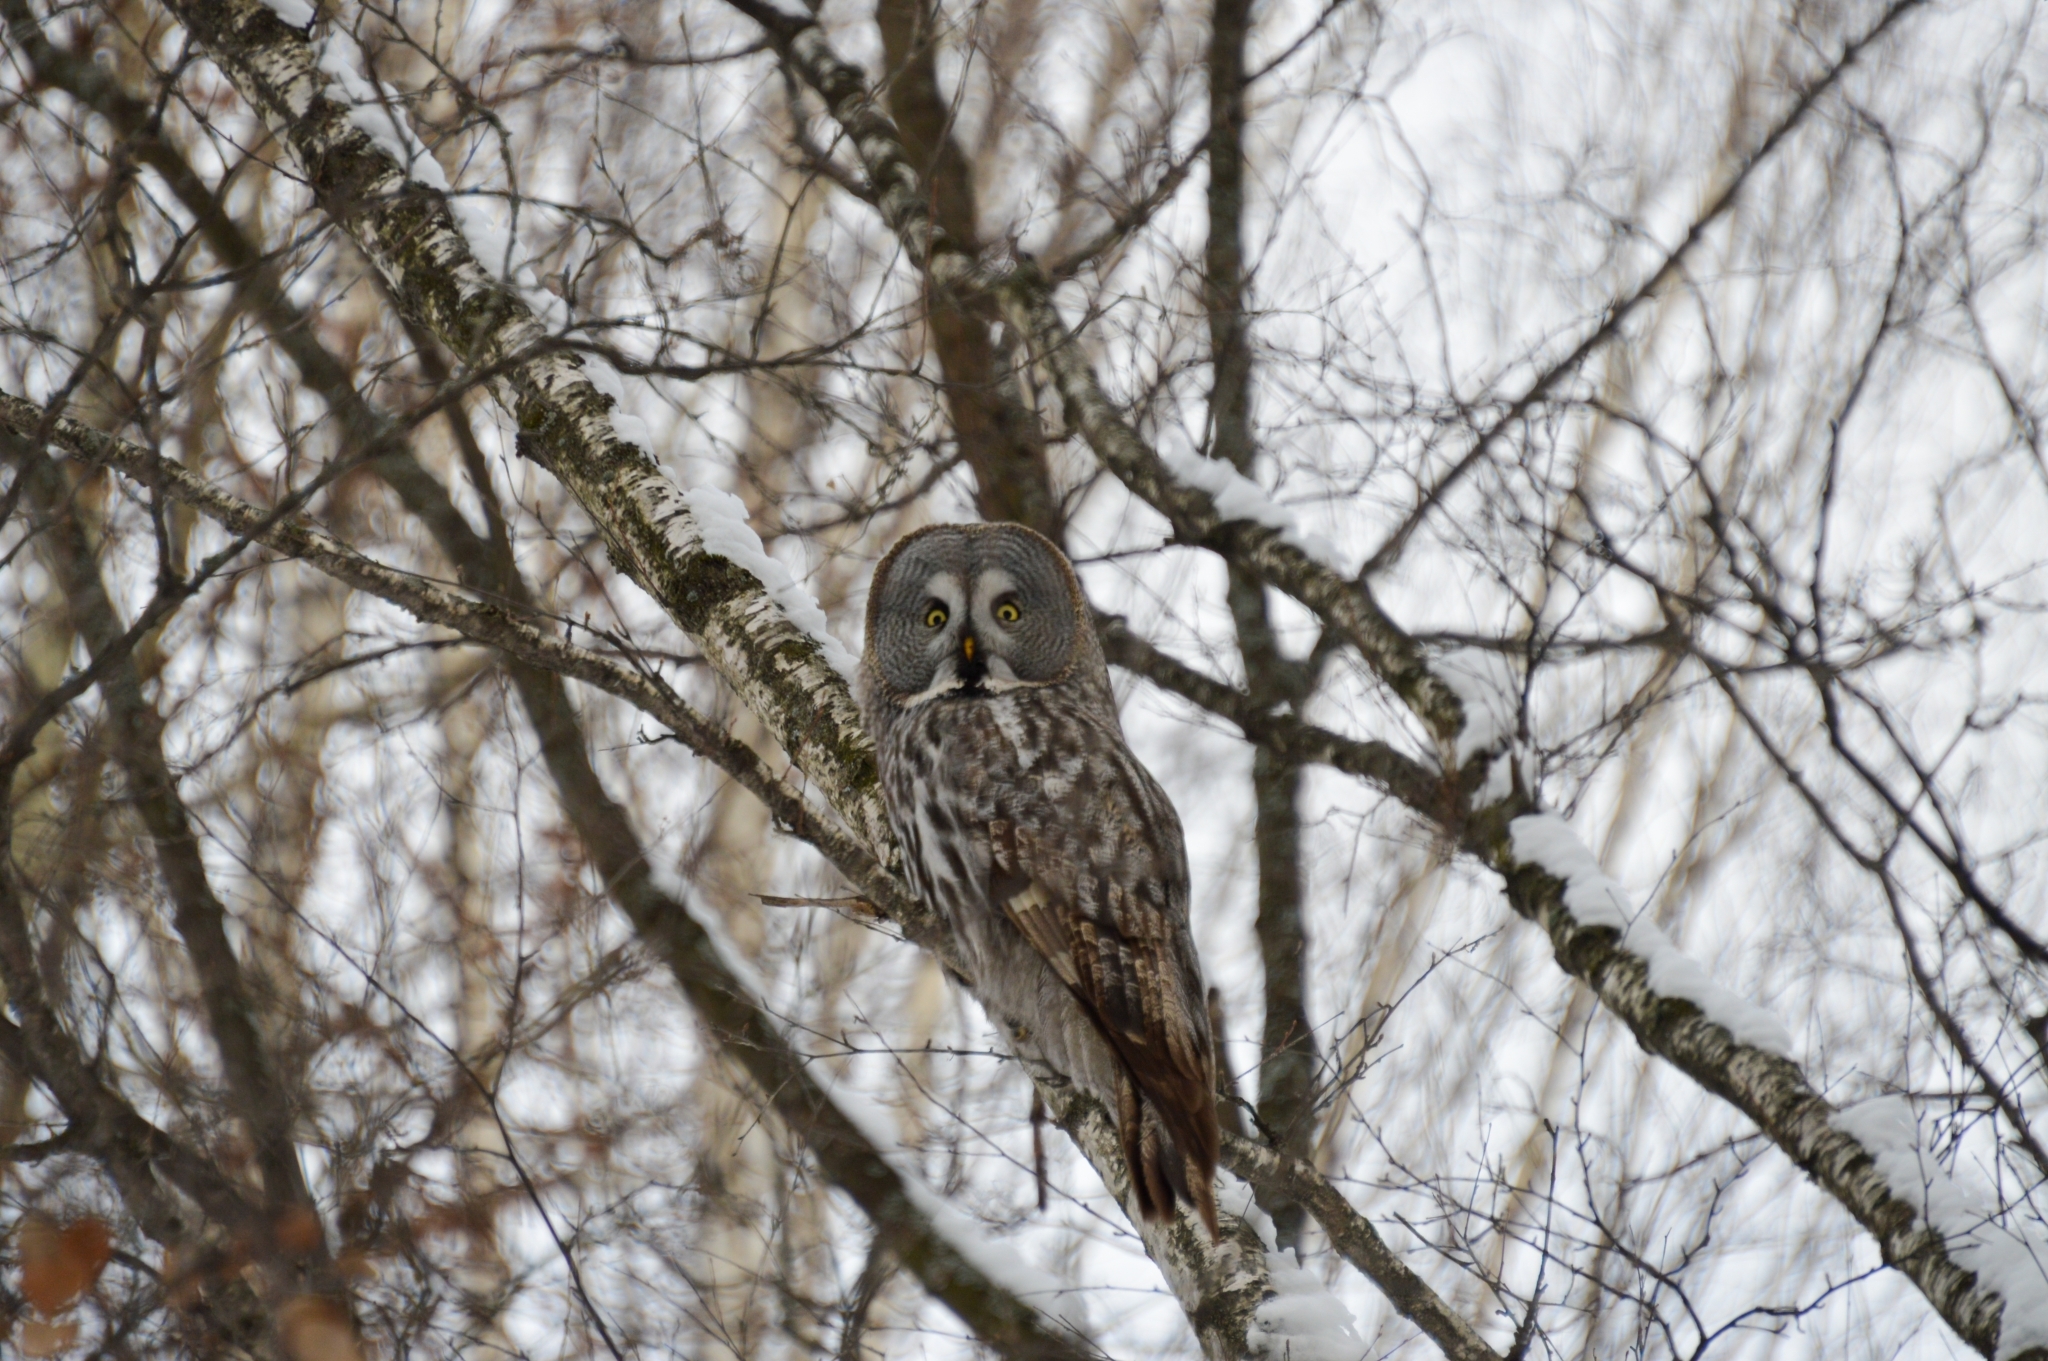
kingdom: Animalia
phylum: Chordata
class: Aves
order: Strigiformes
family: Strigidae
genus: Strix
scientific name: Strix nebulosa
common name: Great grey owl
